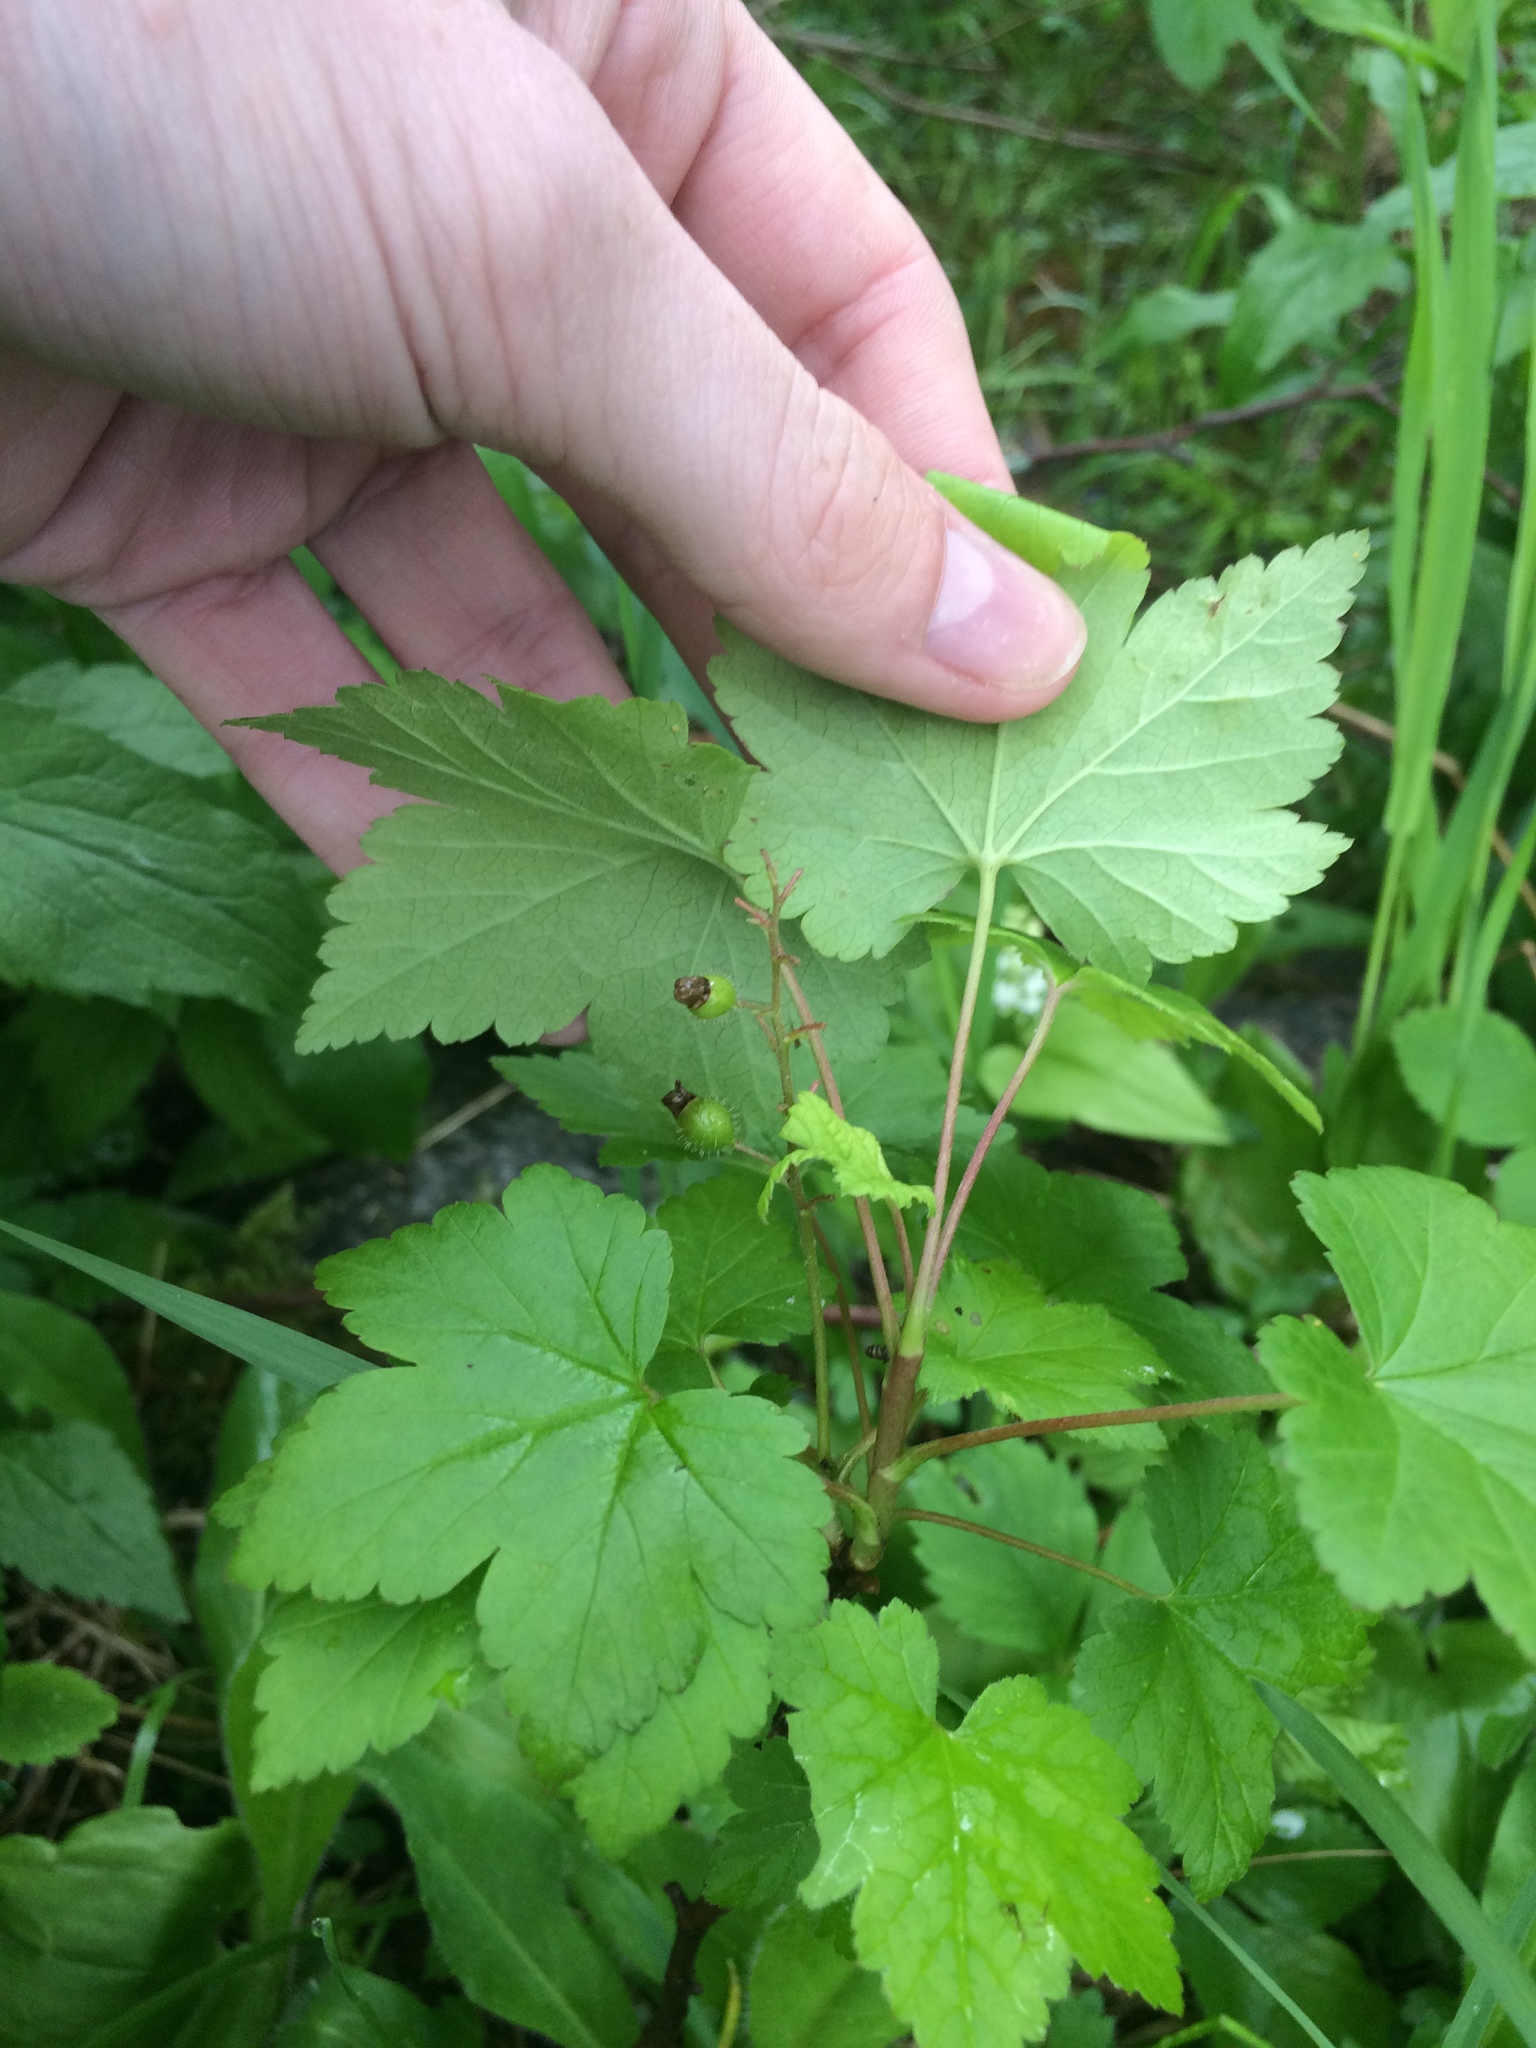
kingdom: Plantae
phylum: Tracheophyta
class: Magnoliopsida
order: Saxifragales
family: Grossulariaceae
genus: Ribes
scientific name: Ribes glandulosum
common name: Skunk currant
